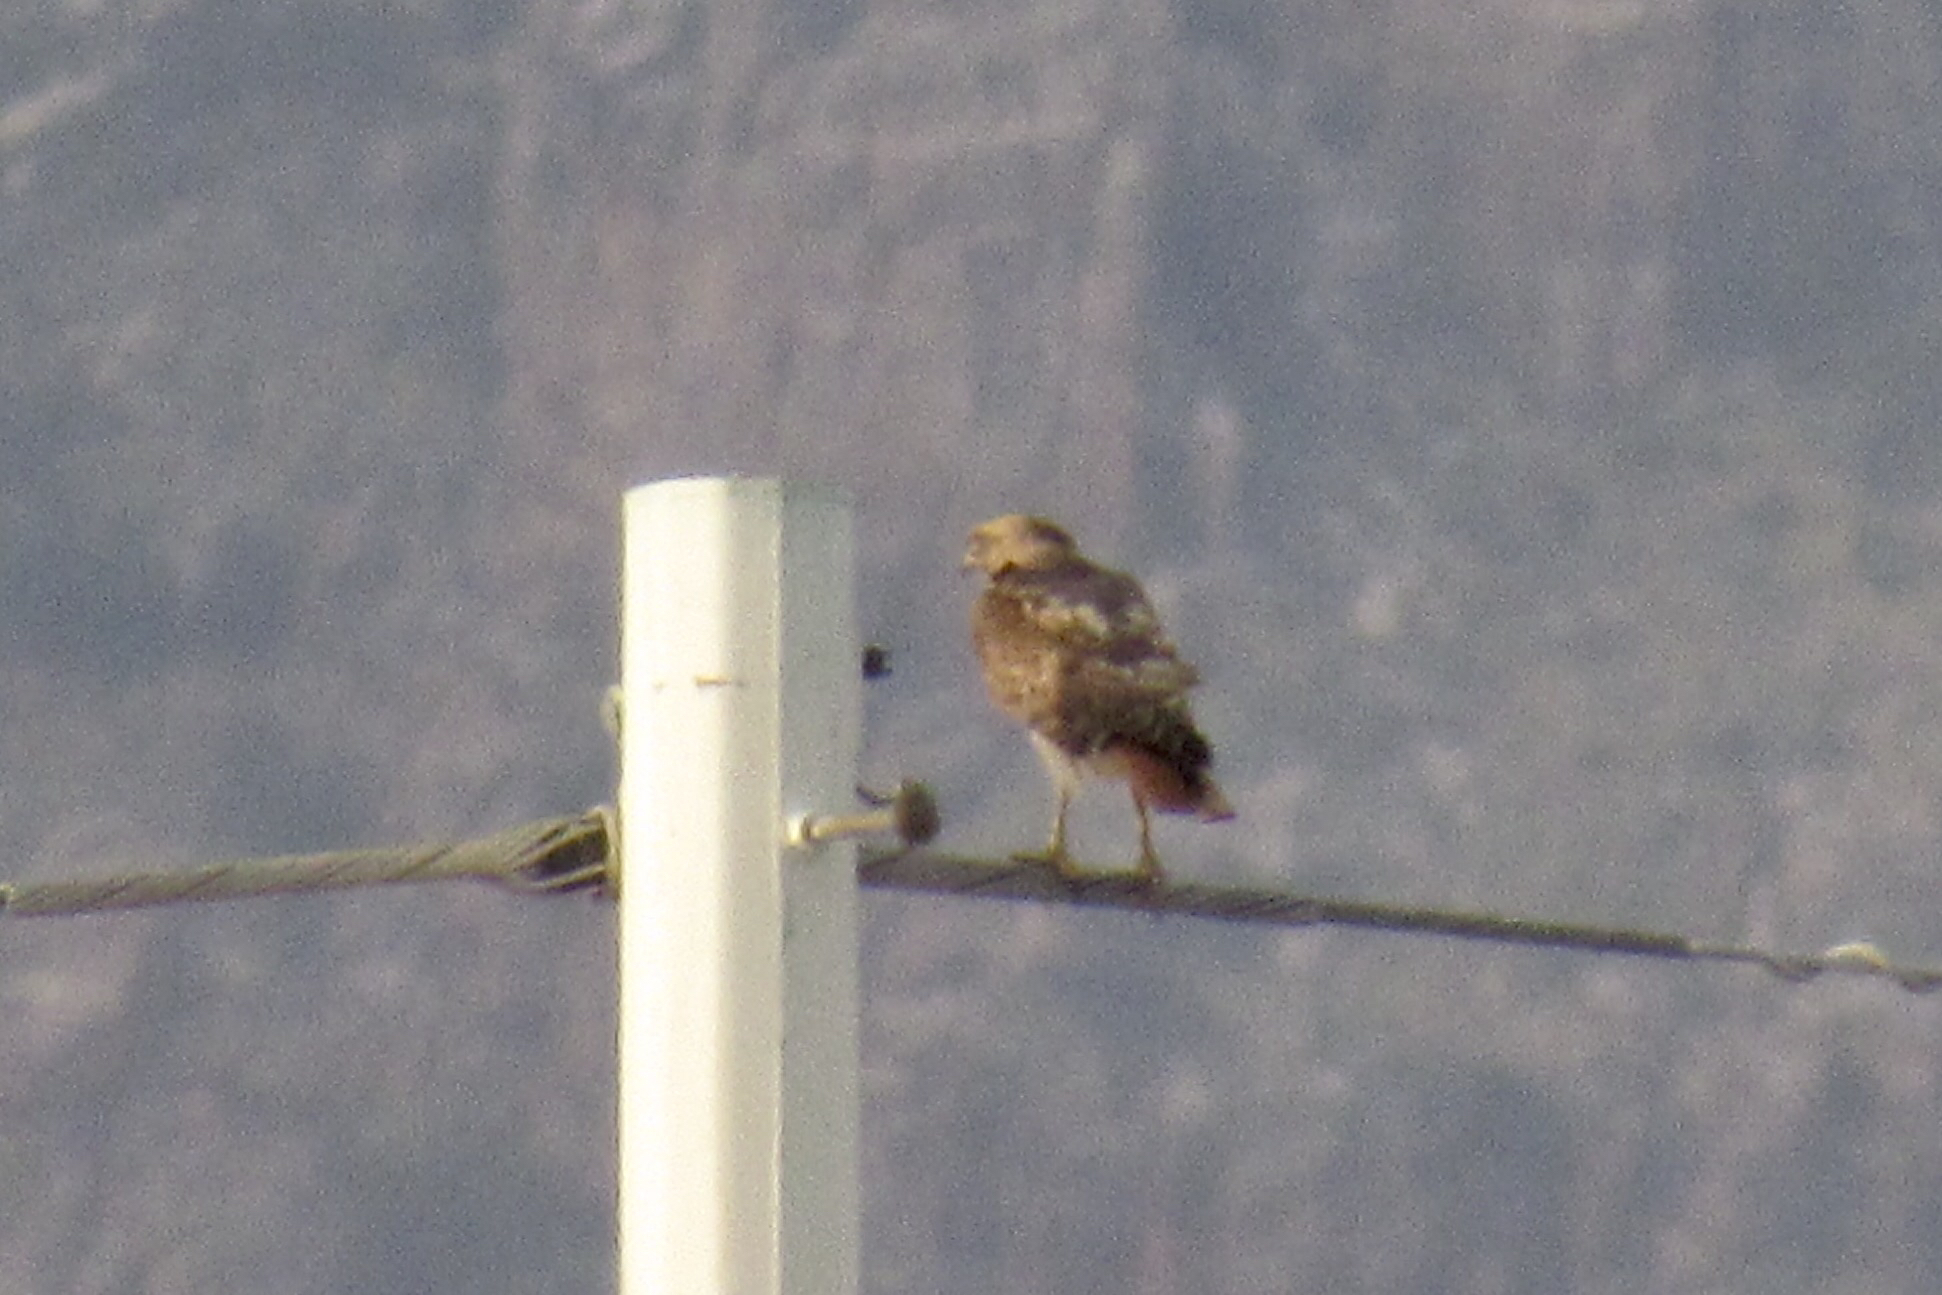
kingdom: Animalia
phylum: Chordata
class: Aves
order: Accipitriformes
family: Accipitridae
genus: Buteo
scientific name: Buteo jamaicensis
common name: Red-tailed hawk
